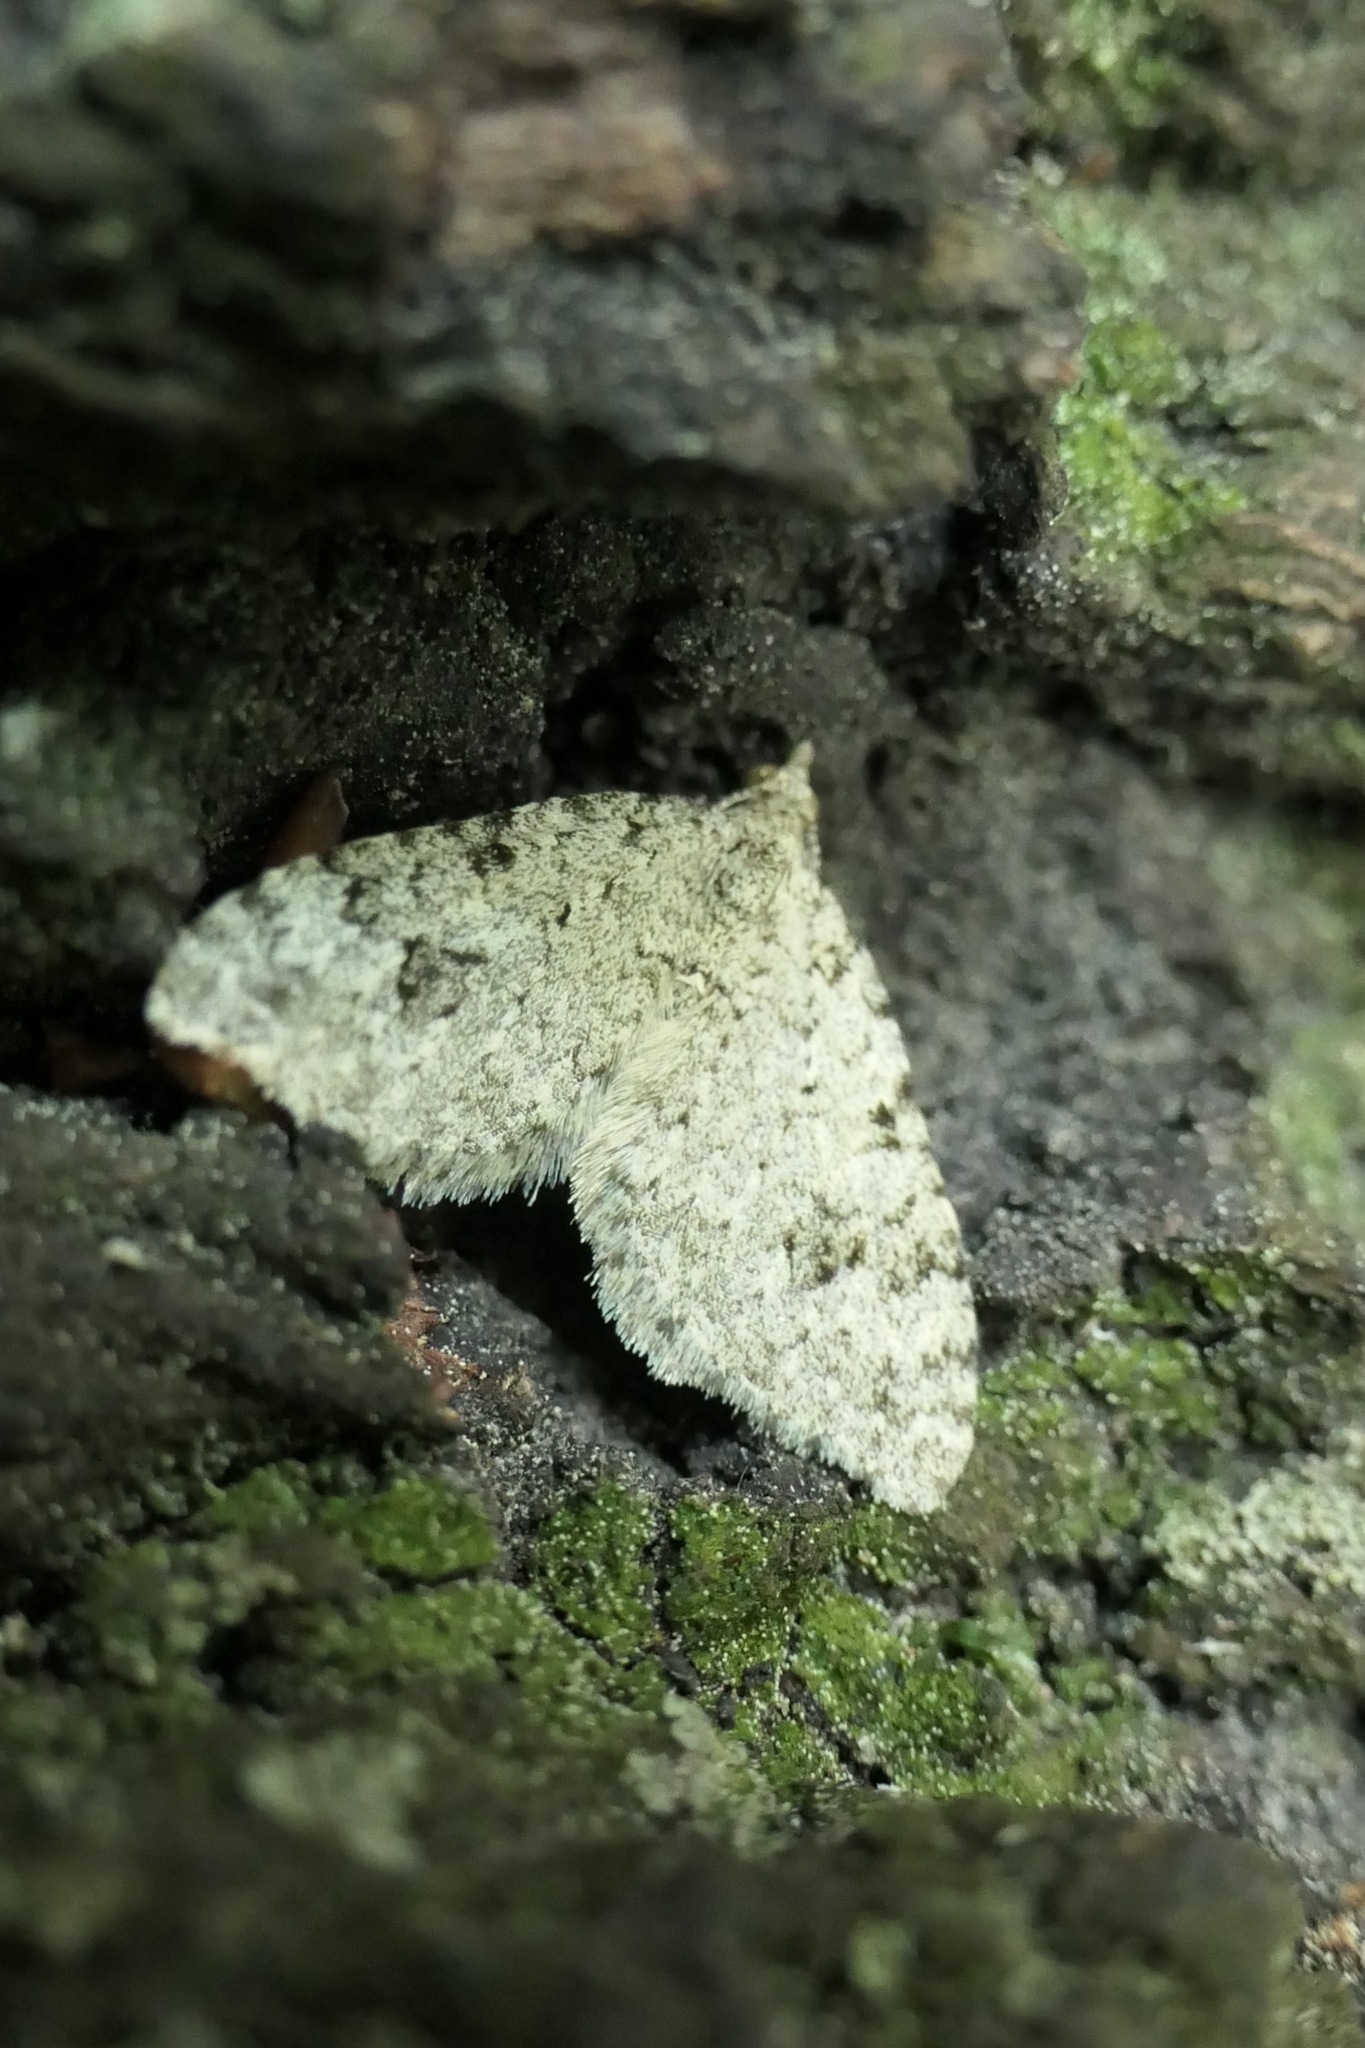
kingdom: Animalia
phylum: Arthropoda
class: Insecta
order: Lepidoptera
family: Geometridae
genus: Helastia
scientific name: Helastia cinerearia
